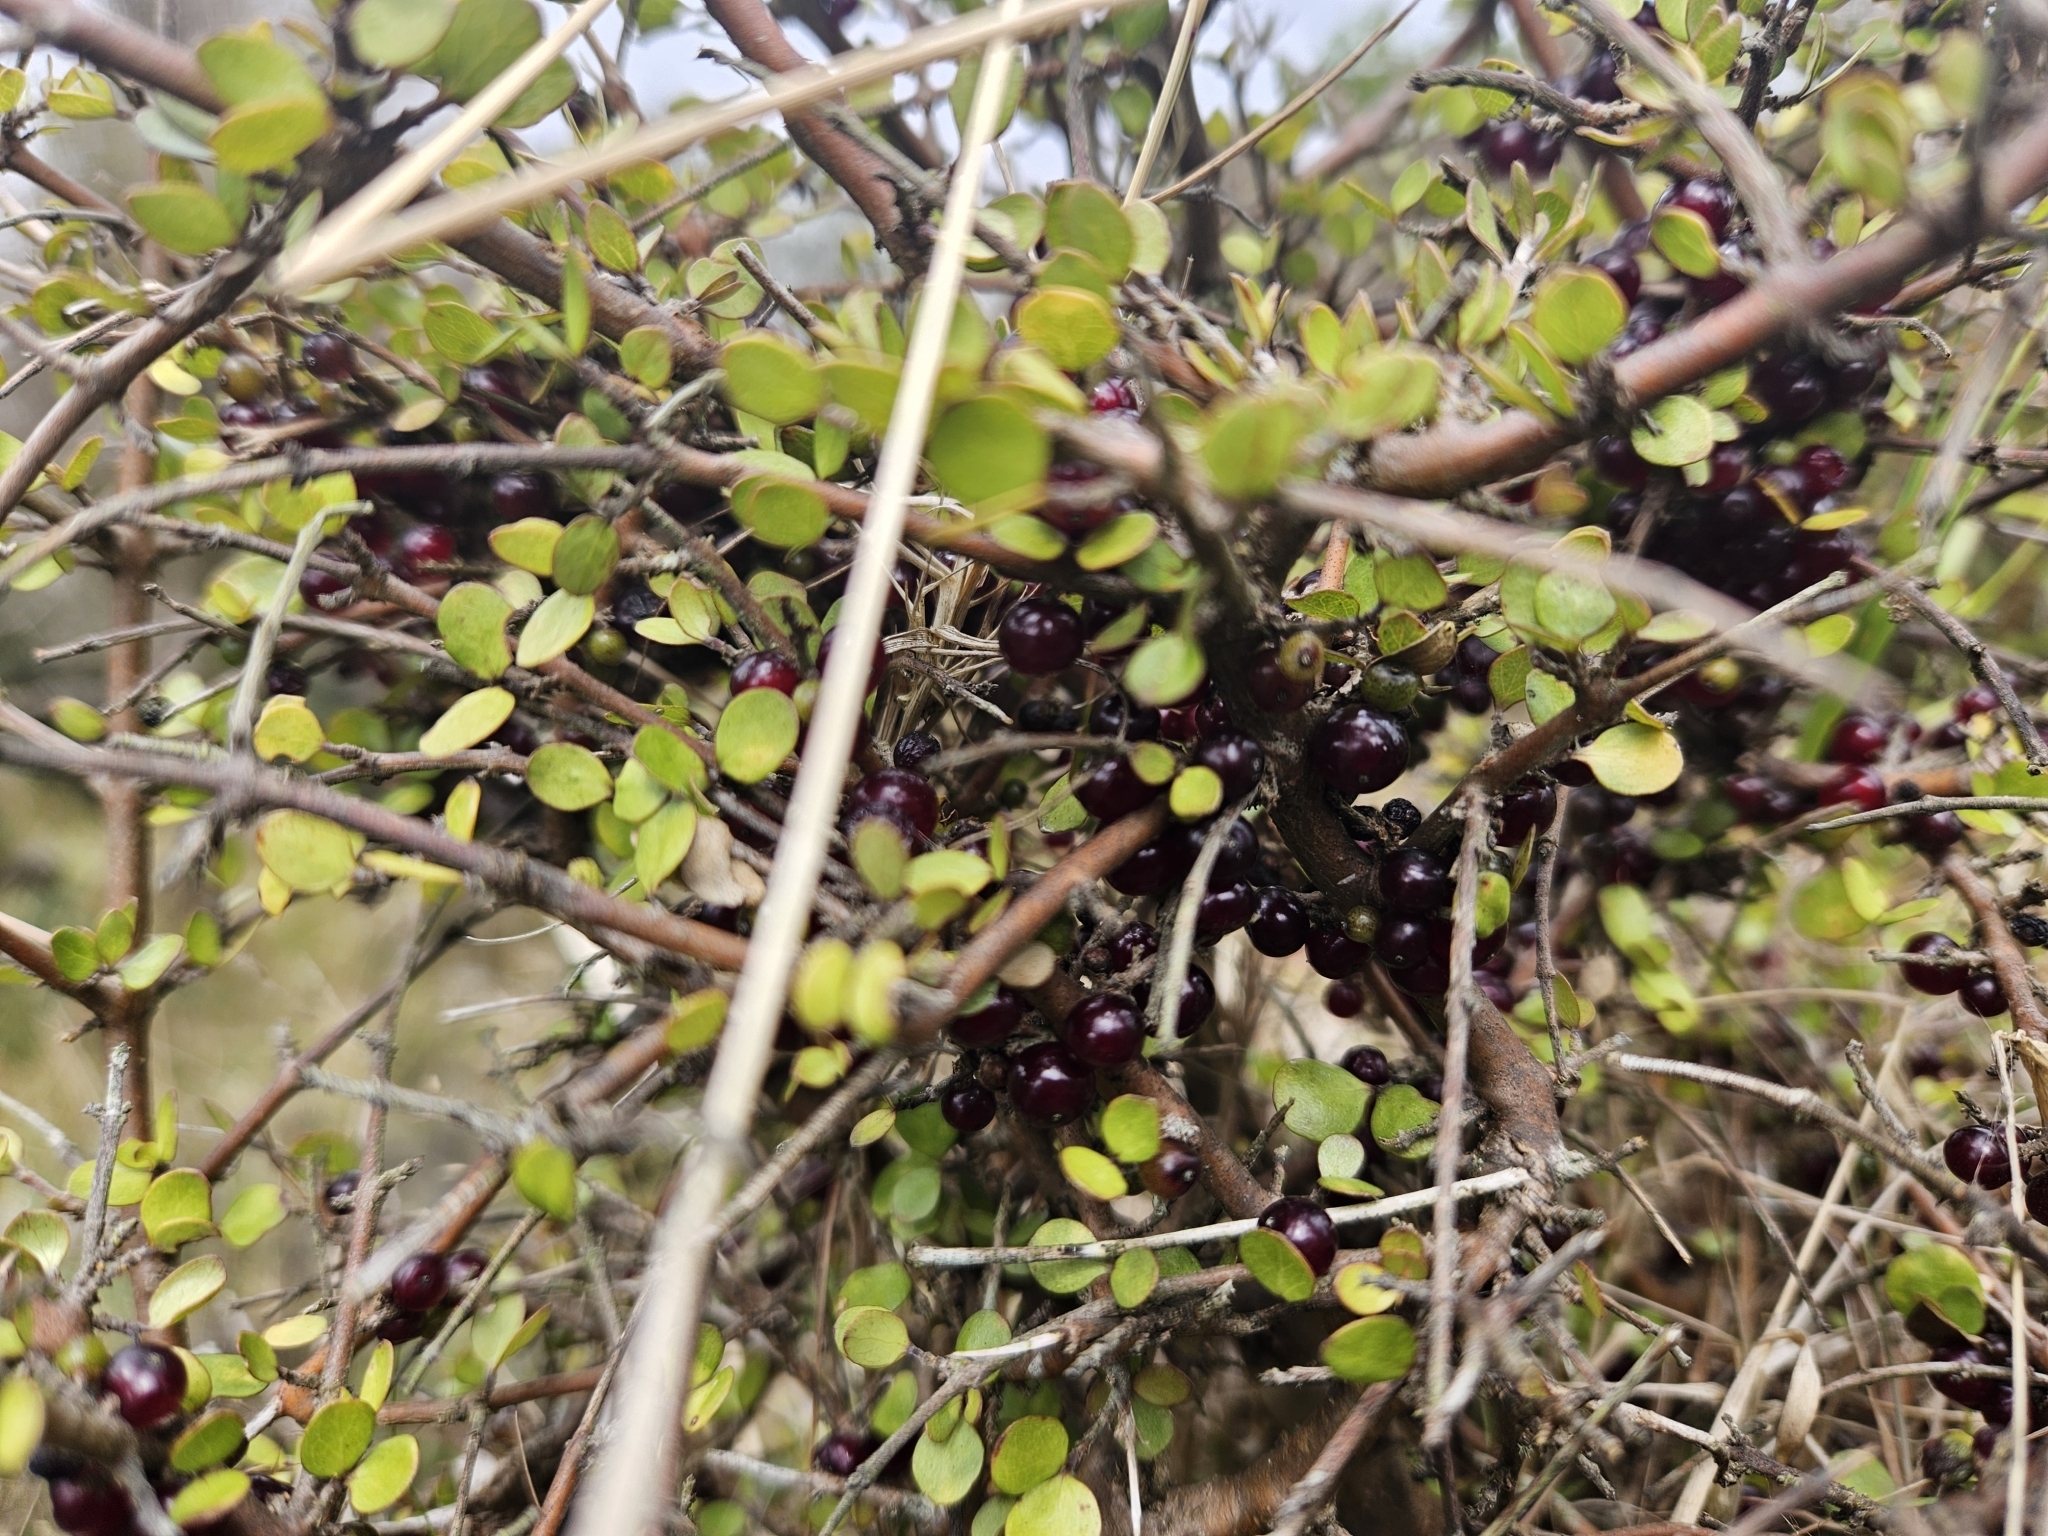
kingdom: Plantae
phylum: Tracheophyta
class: Magnoliopsida
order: Gentianales
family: Rubiaceae
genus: Coprosma
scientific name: Coprosma rhamnoides
